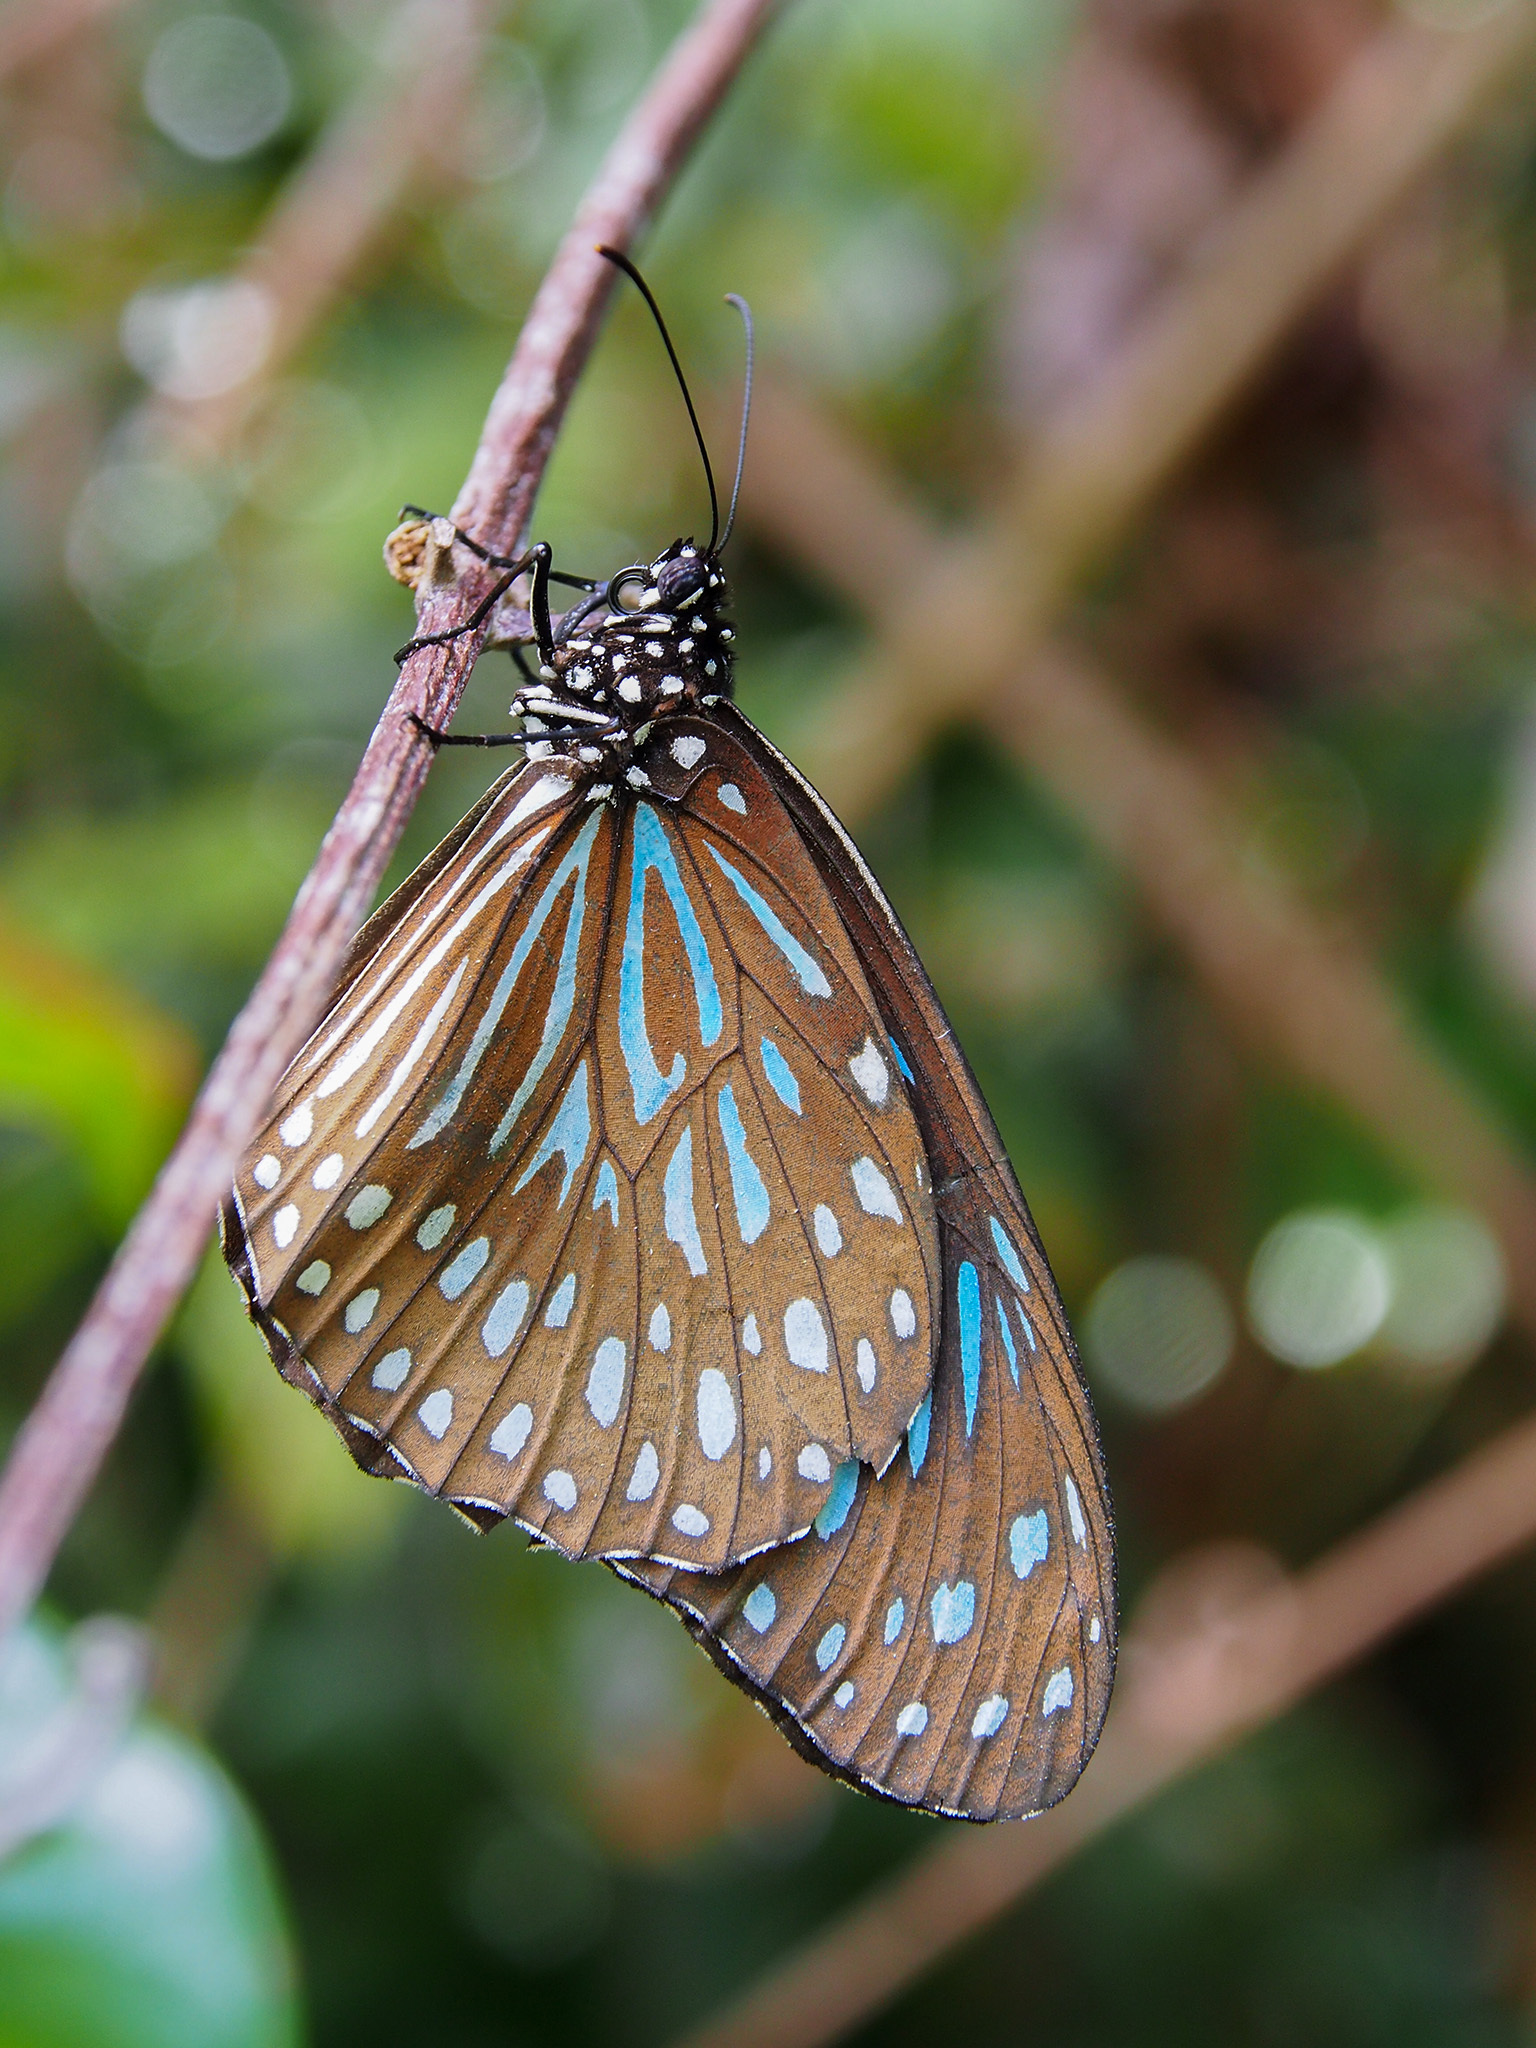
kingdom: Animalia
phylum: Arthropoda
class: Insecta
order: Lepidoptera
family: Nymphalidae
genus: Tirumala
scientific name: Tirumala septentrionis
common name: Dark blue tiger butterfly
